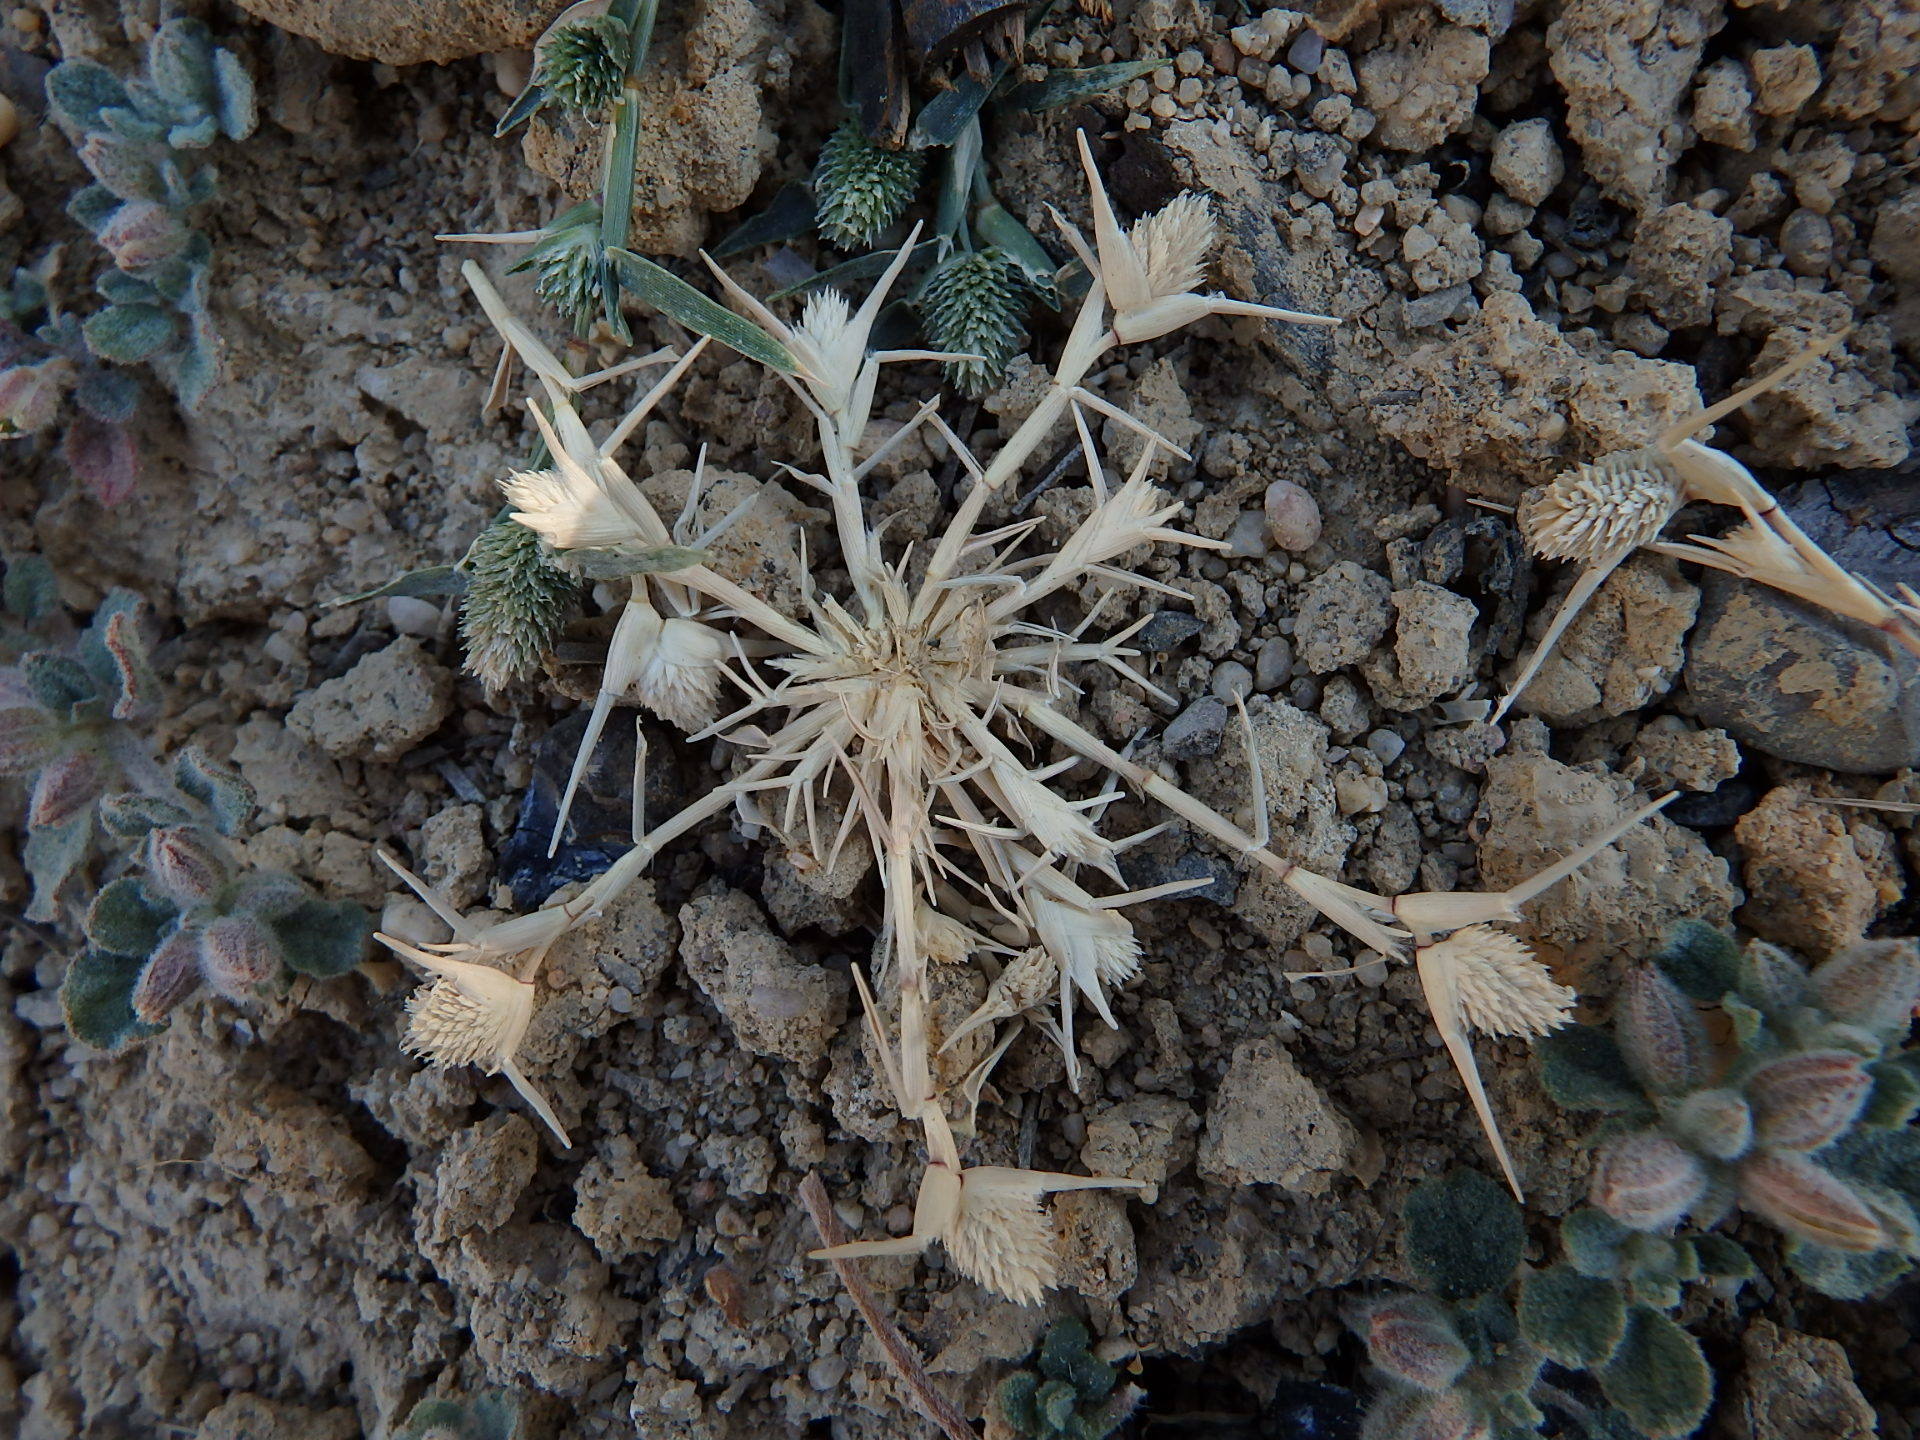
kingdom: Plantae
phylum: Tracheophyta
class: Liliopsida
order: Poales
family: Poaceae
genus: Sporobolus
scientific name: Sporobolus schoenoides
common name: Rush-like timothy
